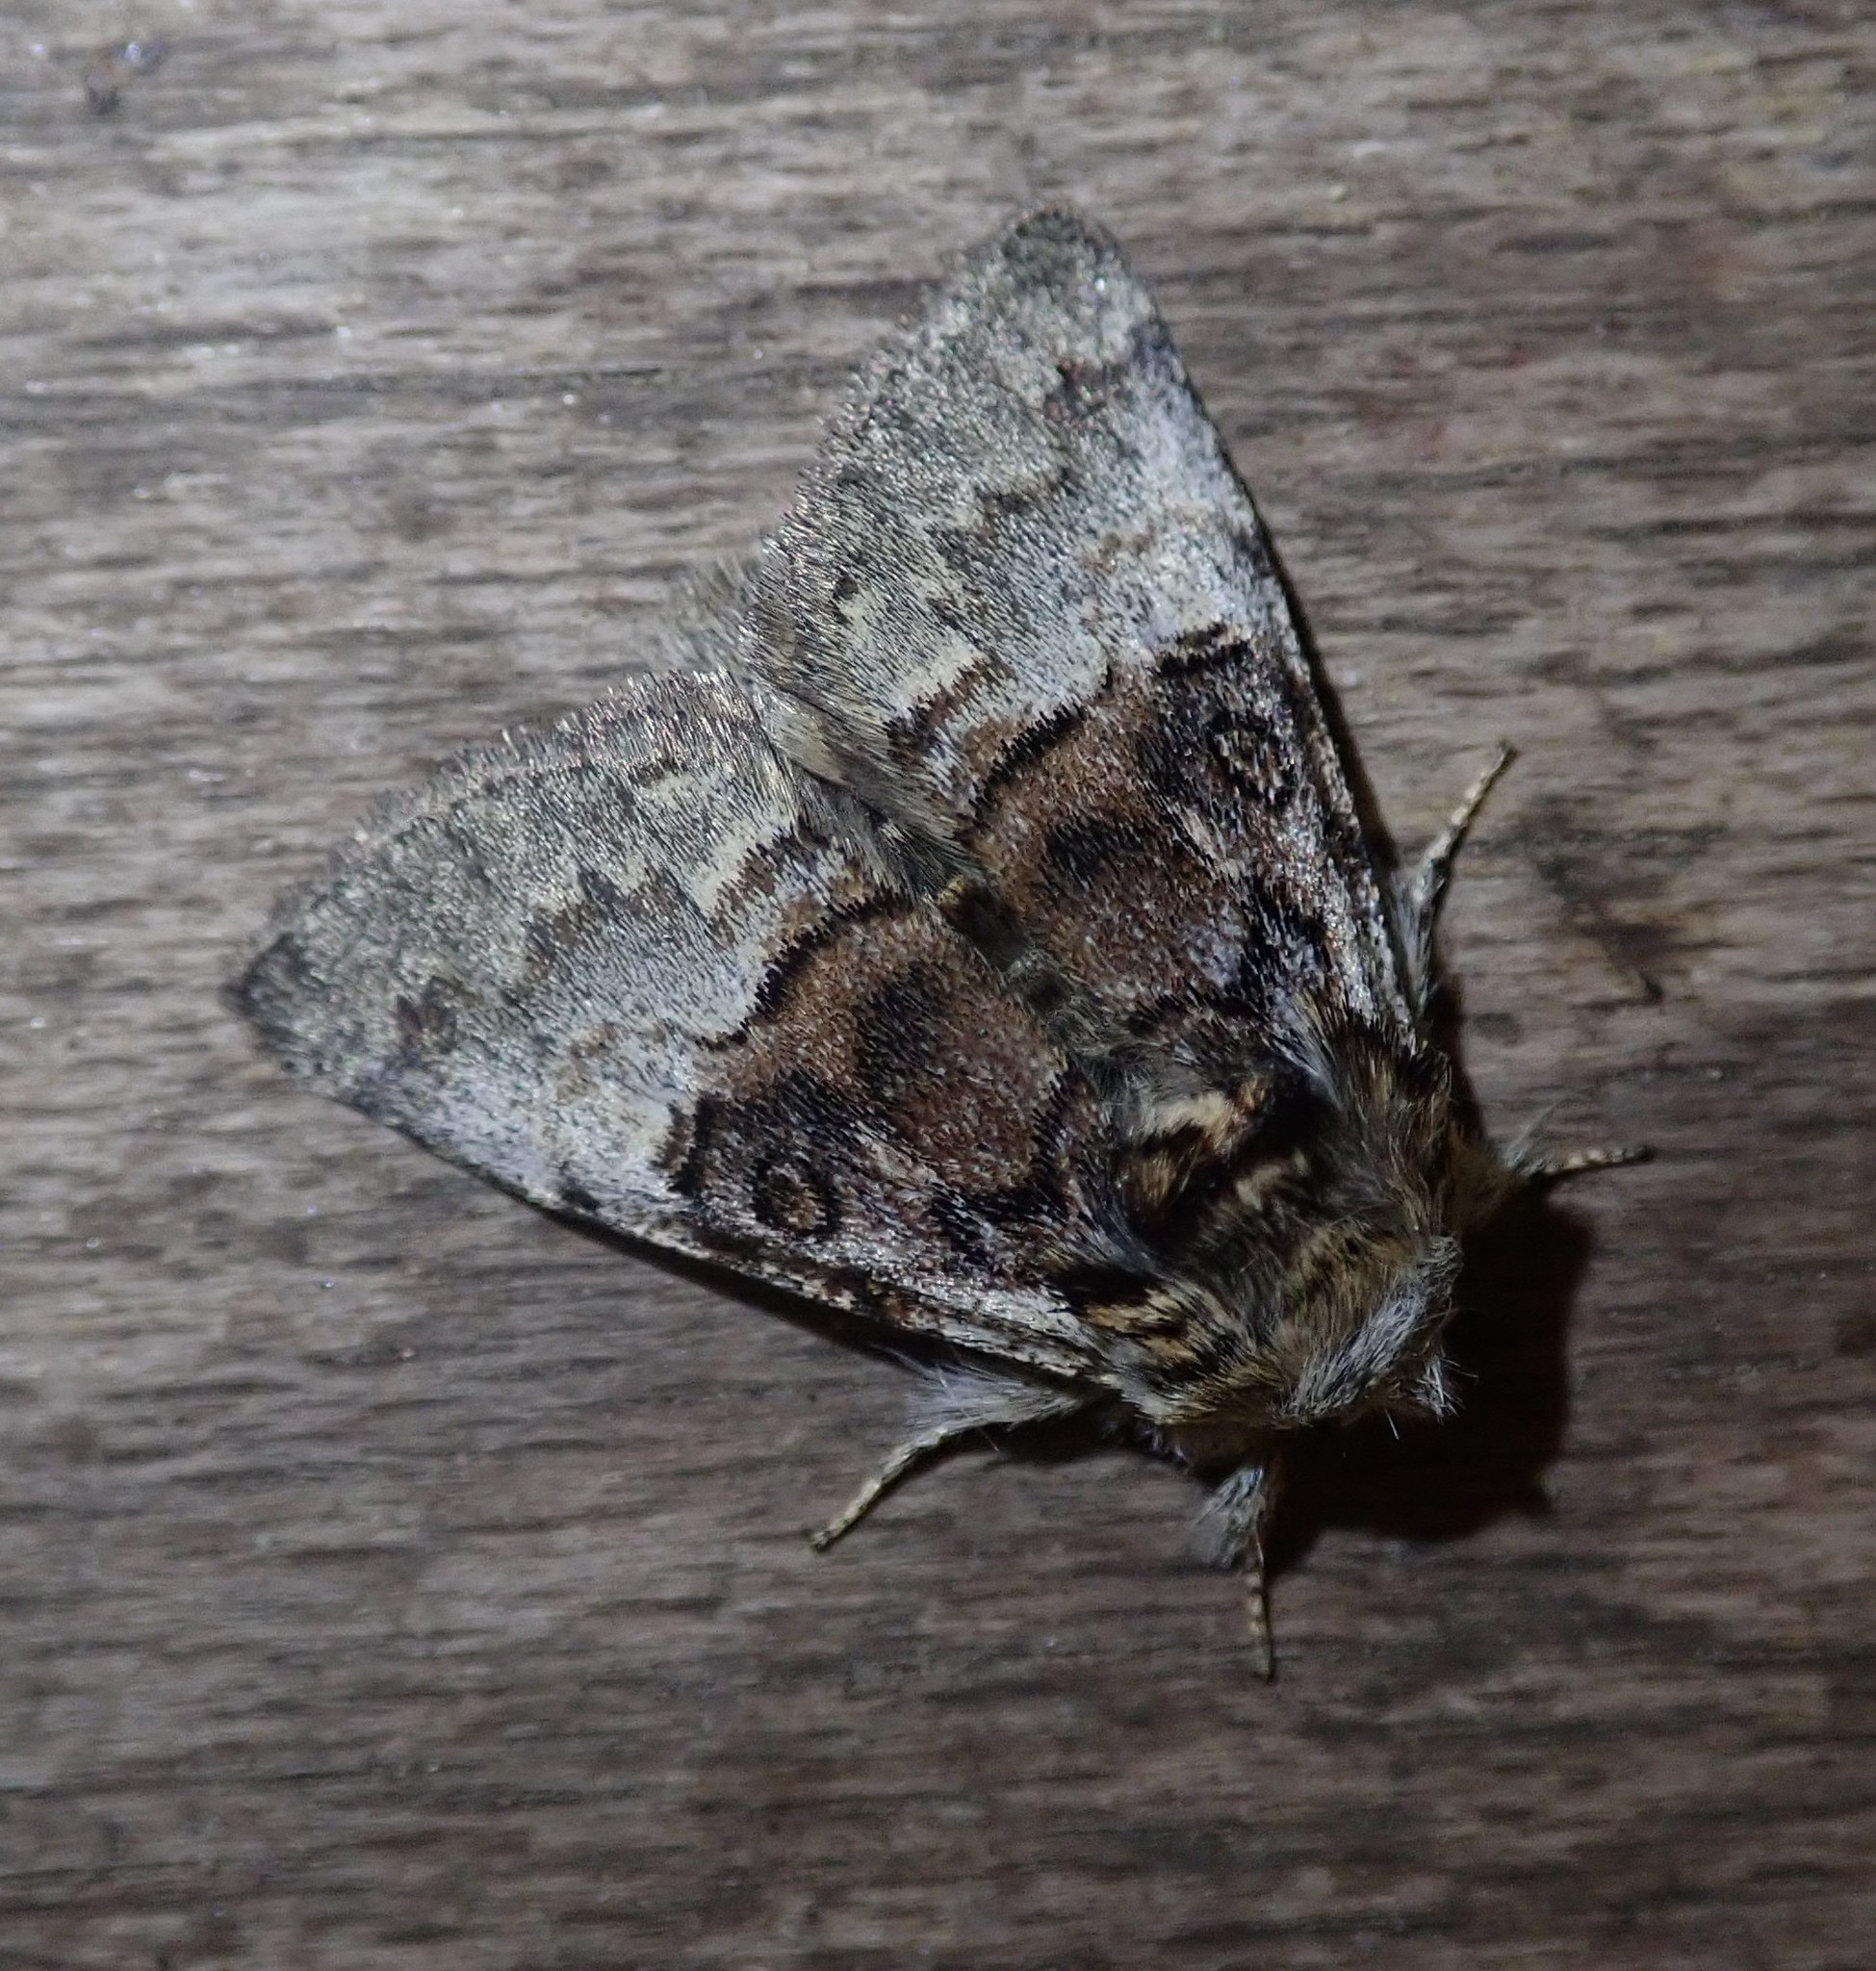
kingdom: Animalia
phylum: Arthropoda
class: Insecta
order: Lepidoptera
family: Noctuidae
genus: Colocasia
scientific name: Colocasia coryli
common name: Nut-tree tussock
